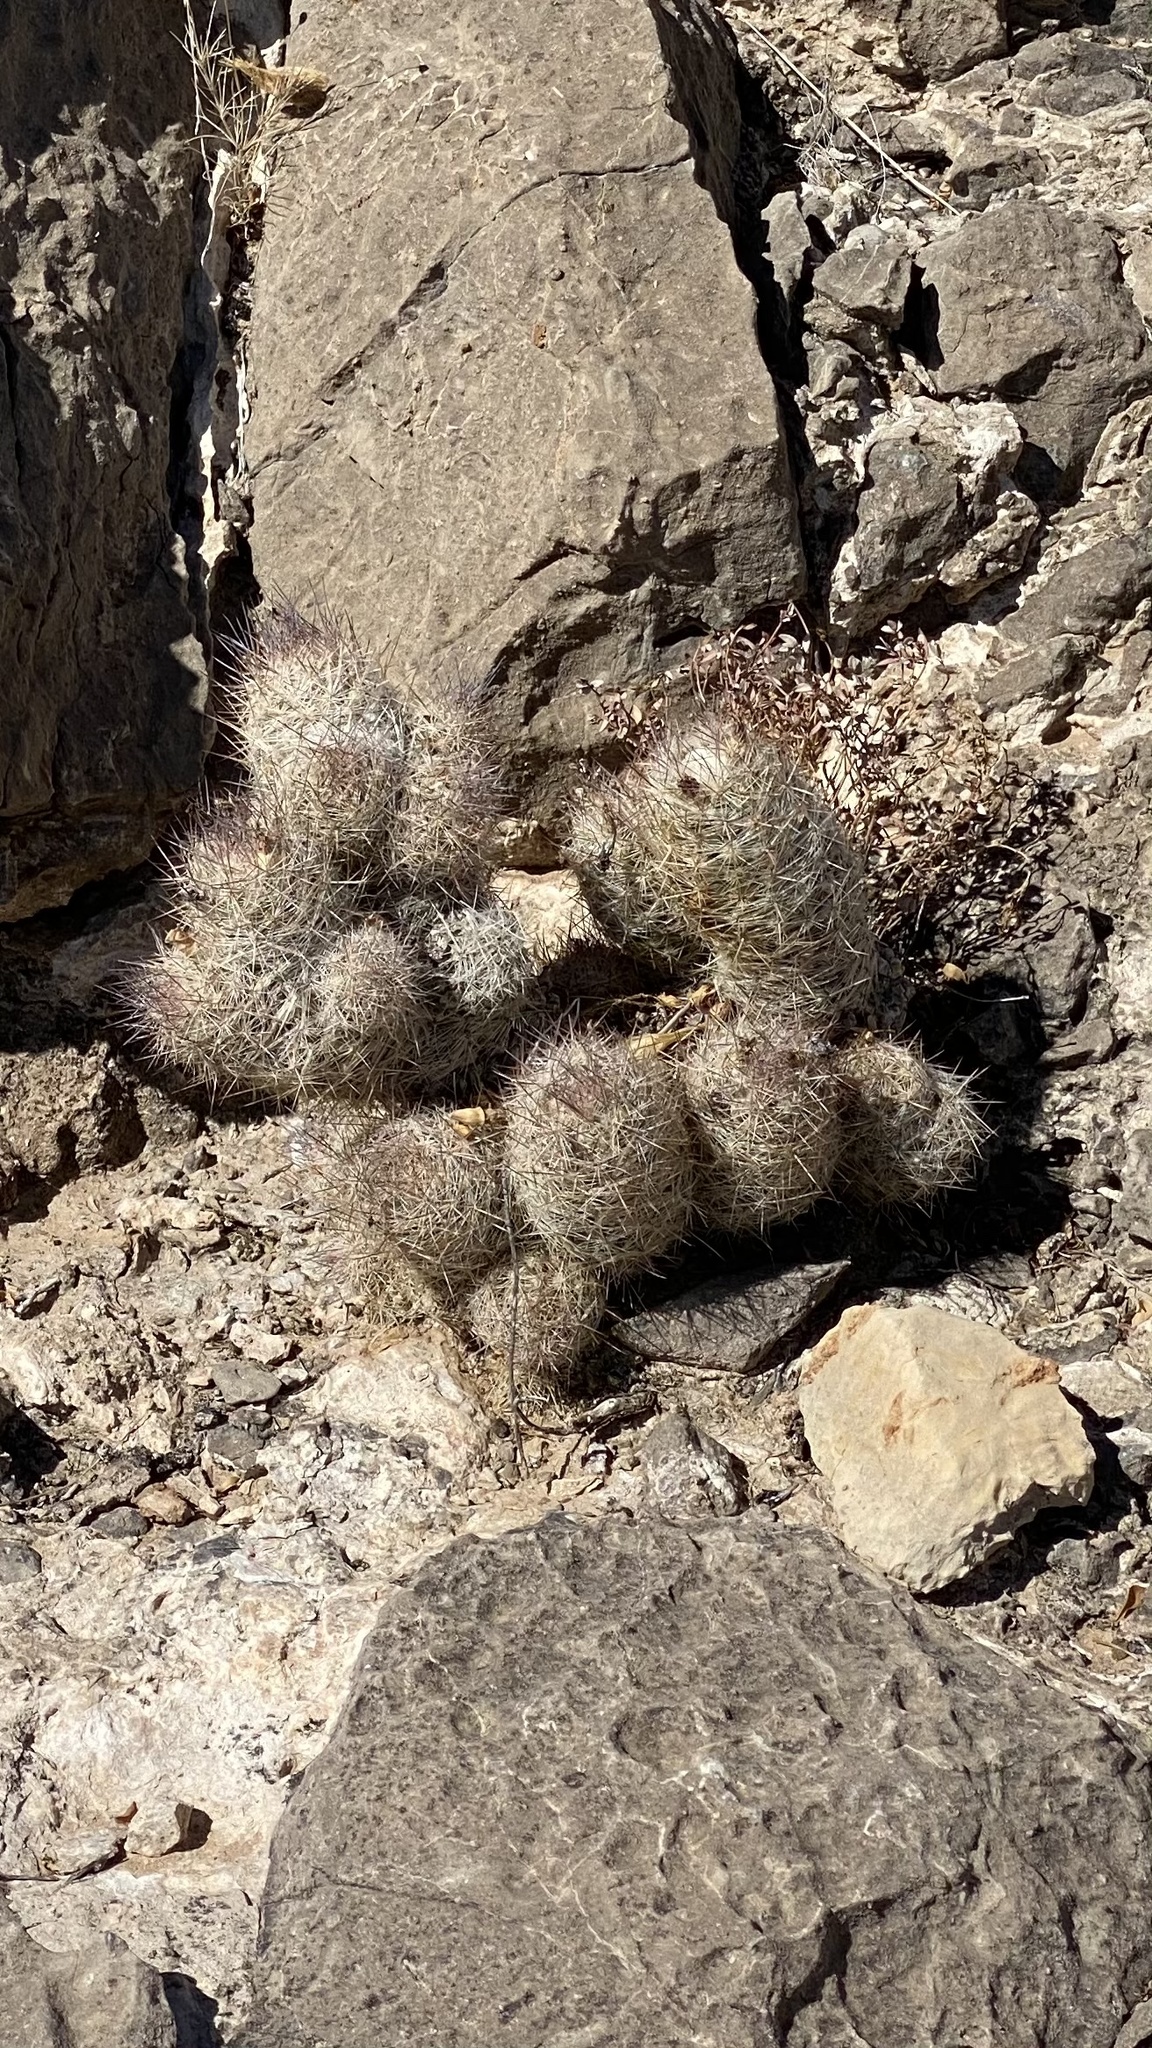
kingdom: Plantae
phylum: Tracheophyta
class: Magnoliopsida
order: Caryophyllales
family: Cactaceae
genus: Pelecyphora
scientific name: Pelecyphora tuberculosa
